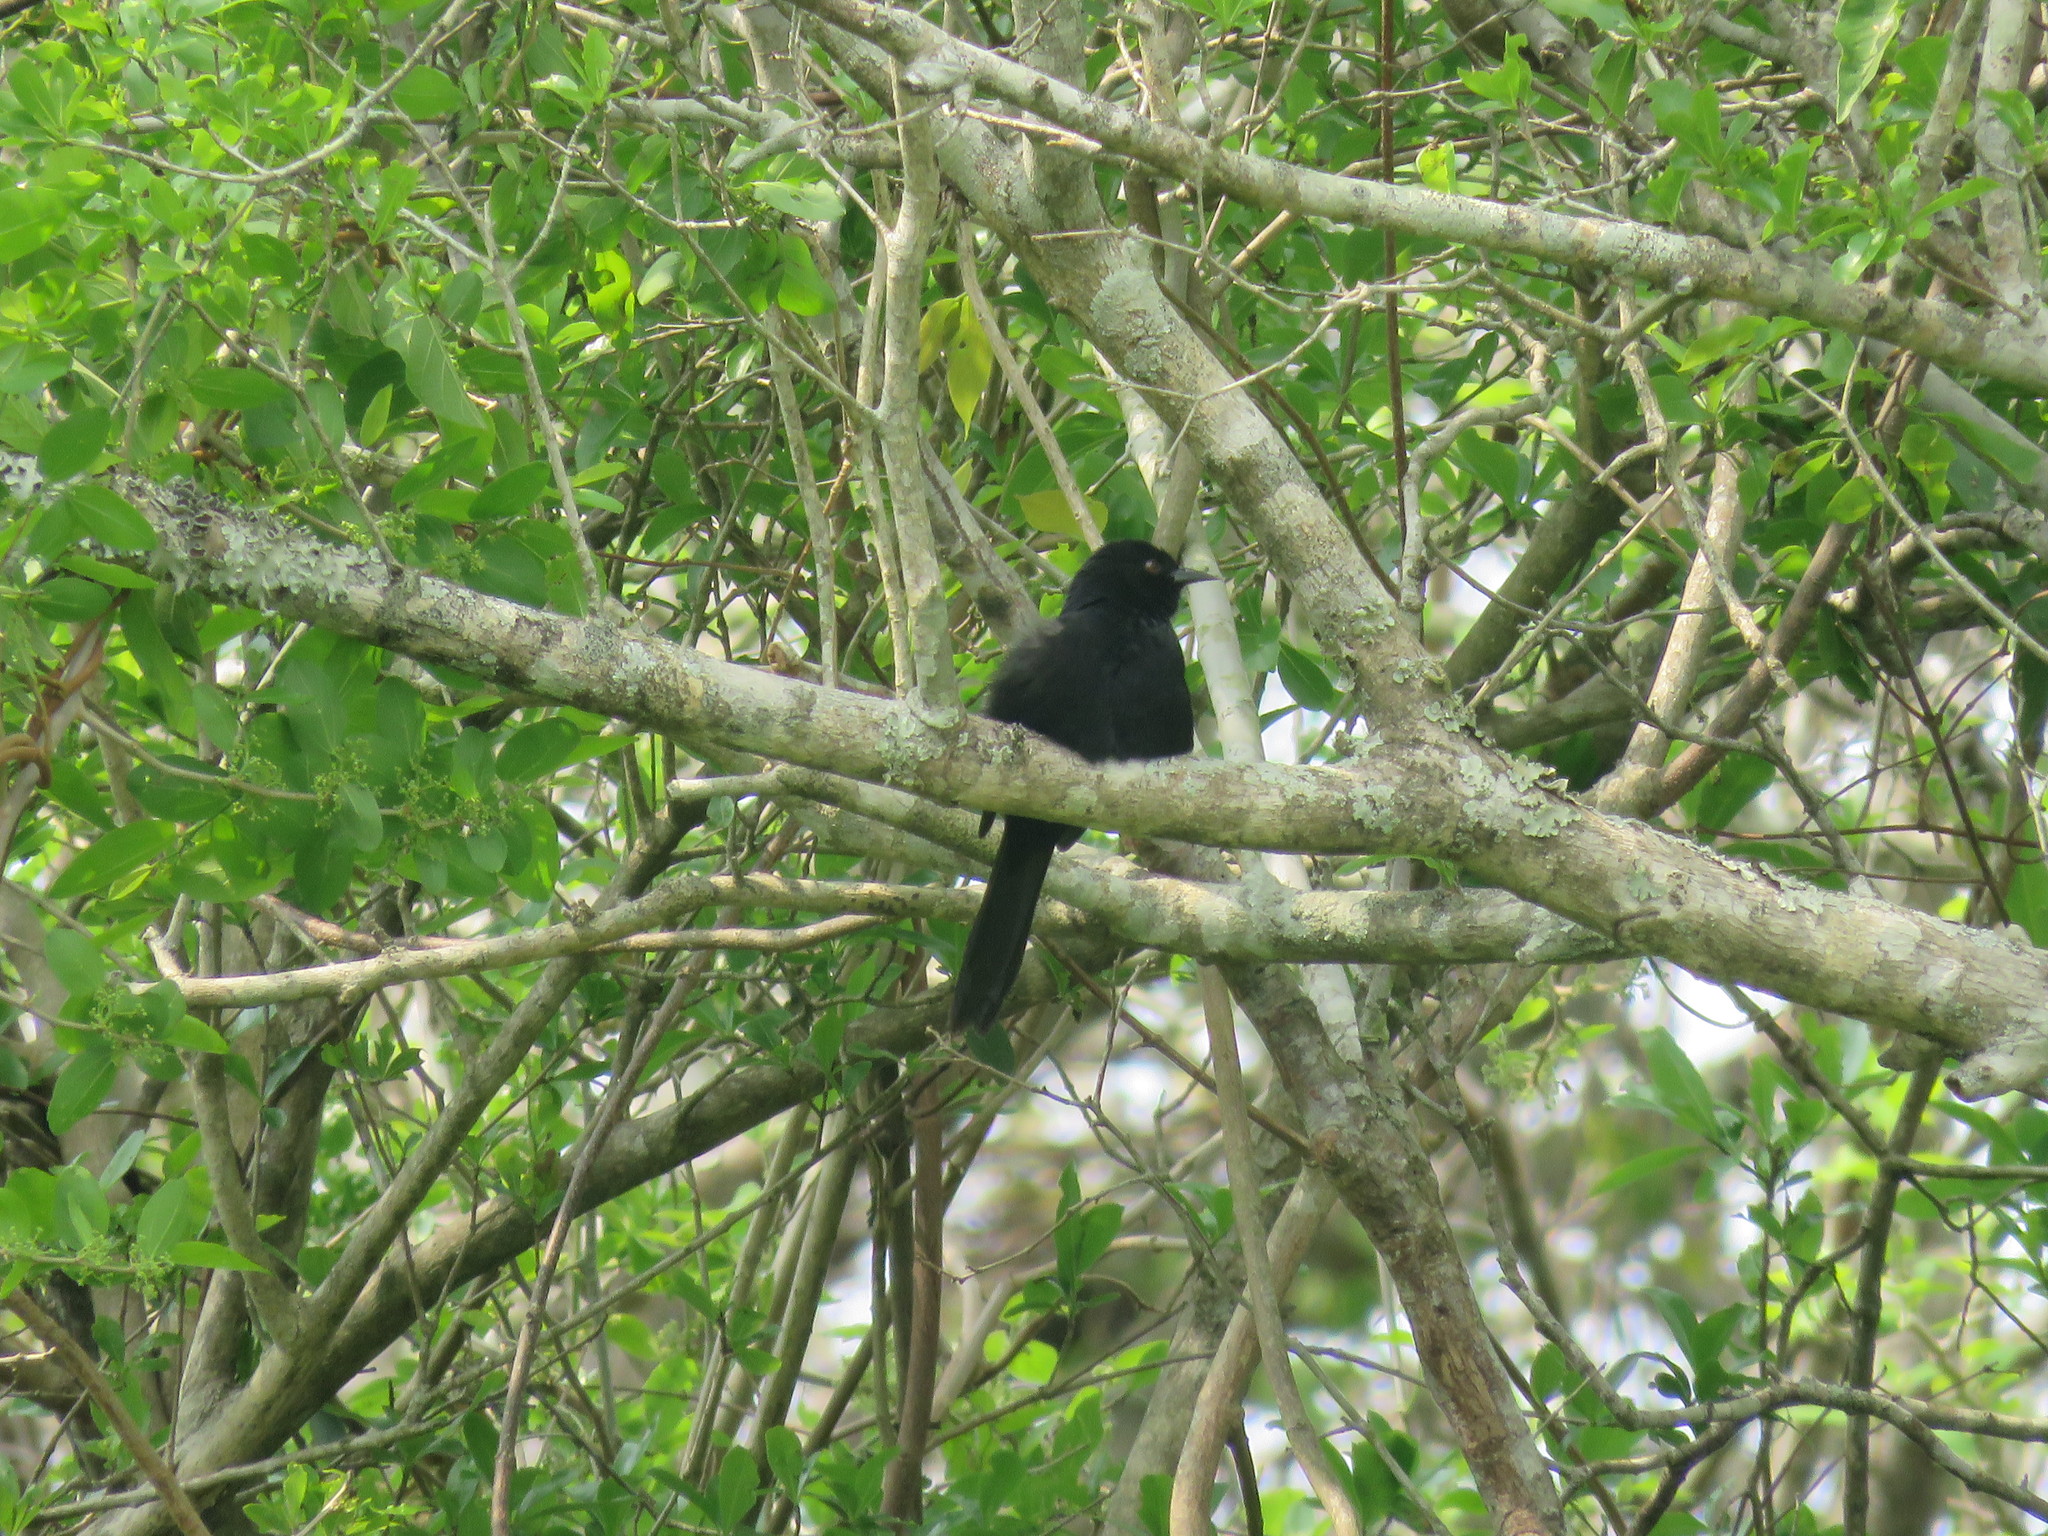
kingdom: Animalia
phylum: Chordata
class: Aves
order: Passeriformes
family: Icteridae
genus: Icterus
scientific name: Icterus cayanensis
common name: Epaulet oriole
